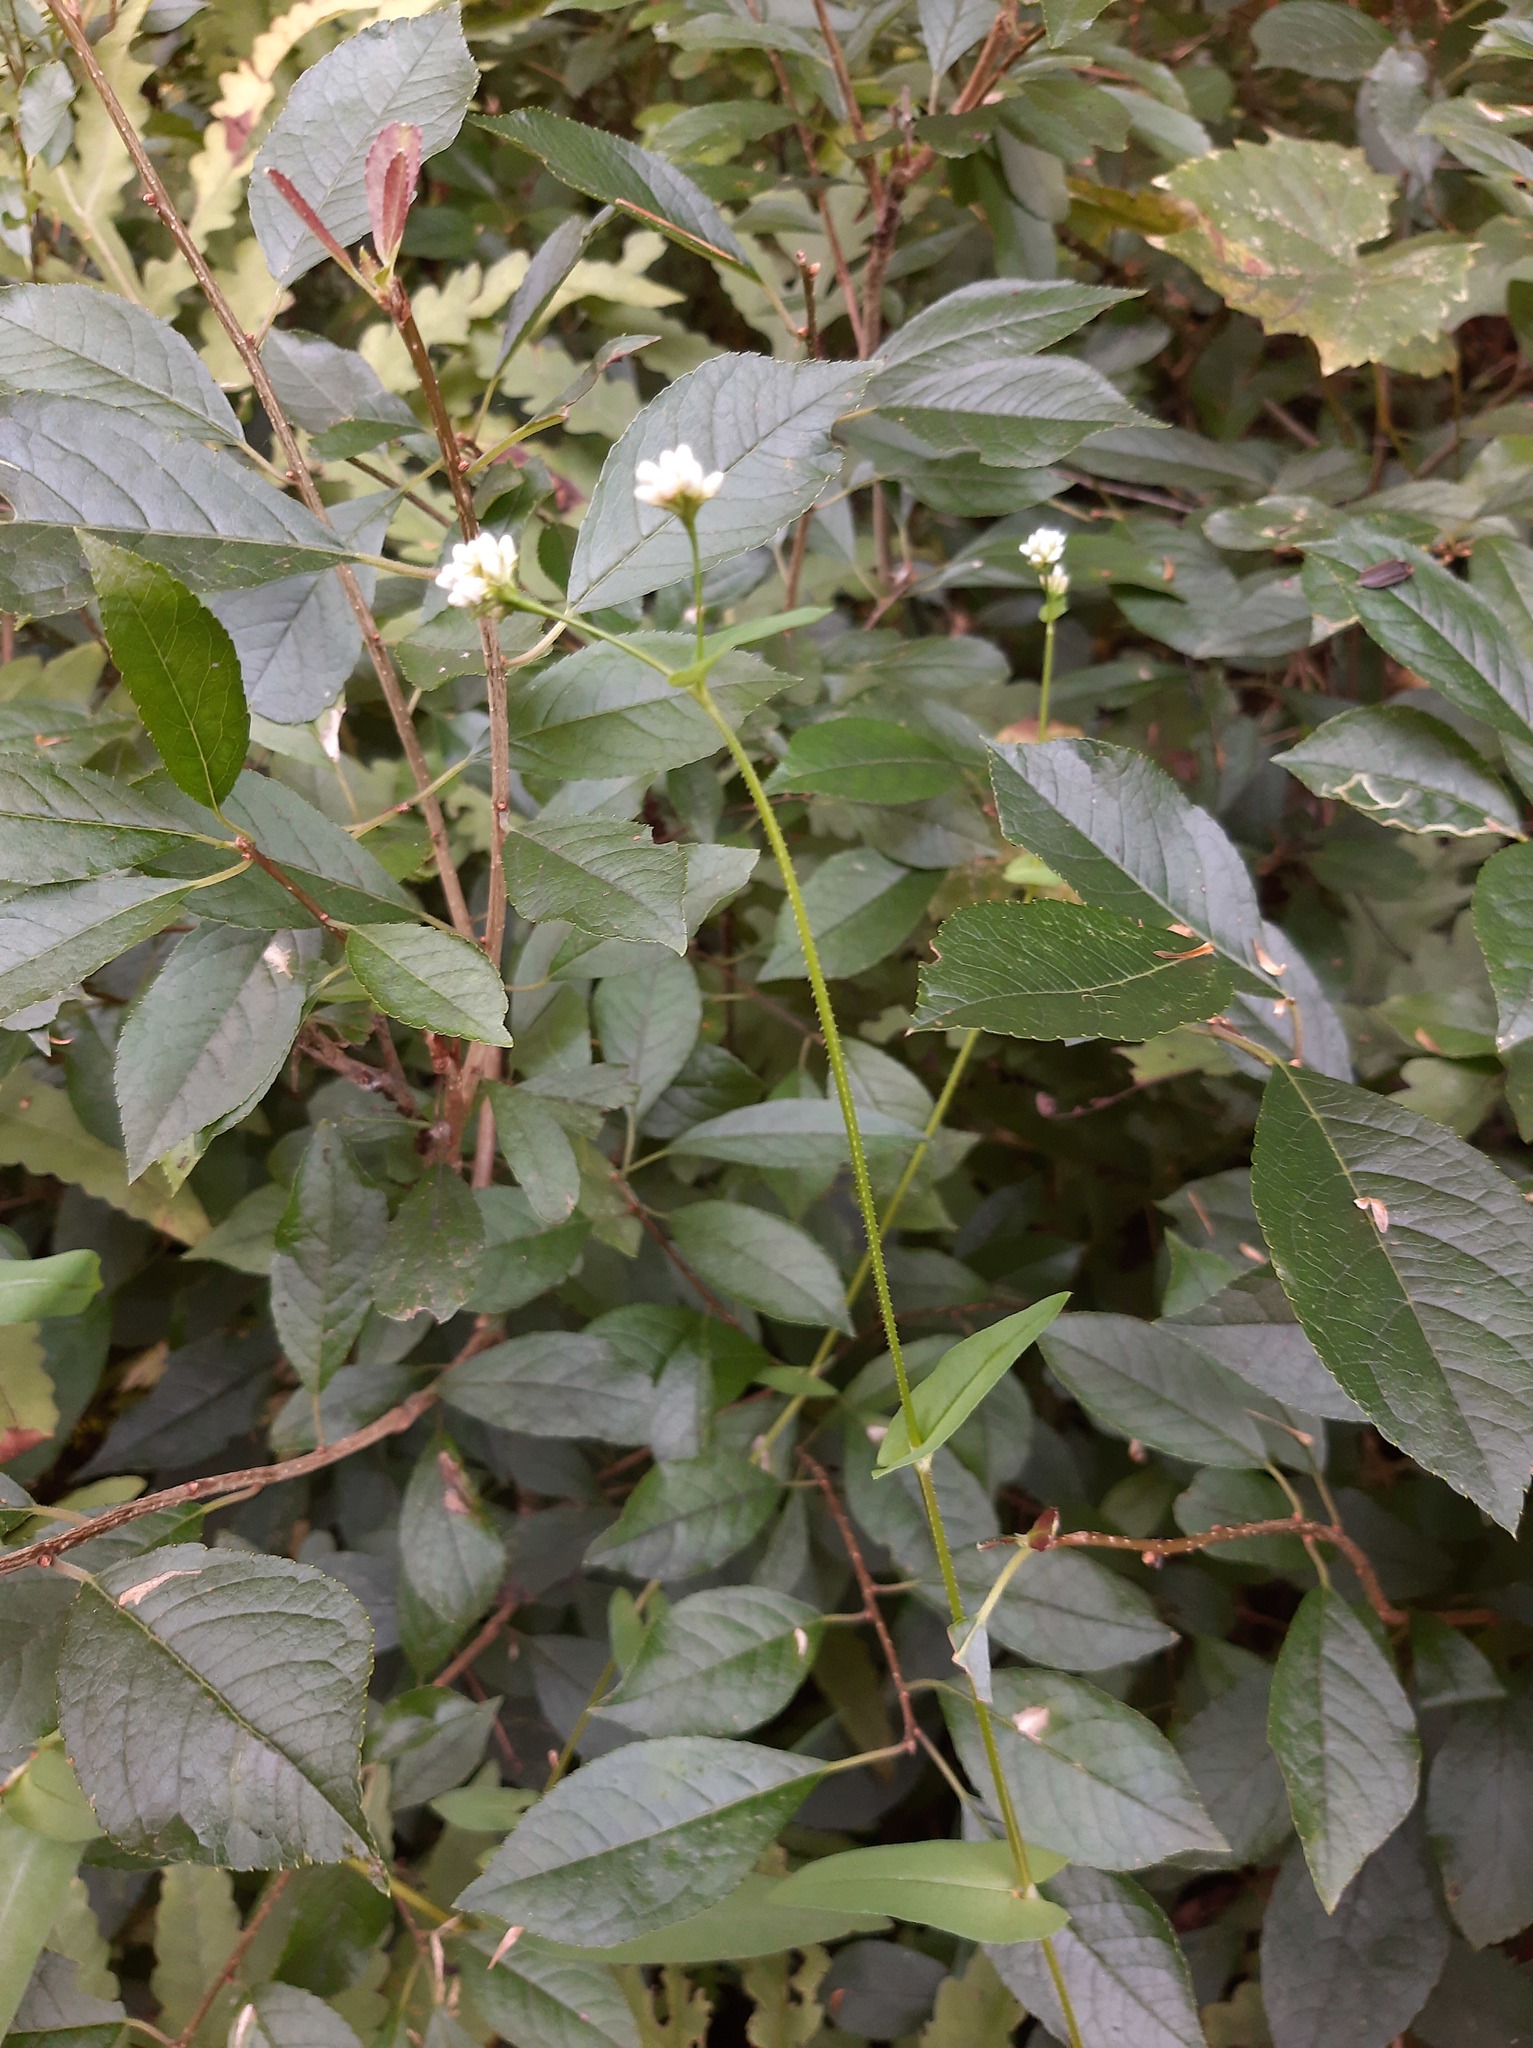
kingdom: Plantae
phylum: Tracheophyta
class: Magnoliopsida
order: Caryophyllales
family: Polygonaceae
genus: Persicaria
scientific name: Persicaria sagittata
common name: American tearthumb
